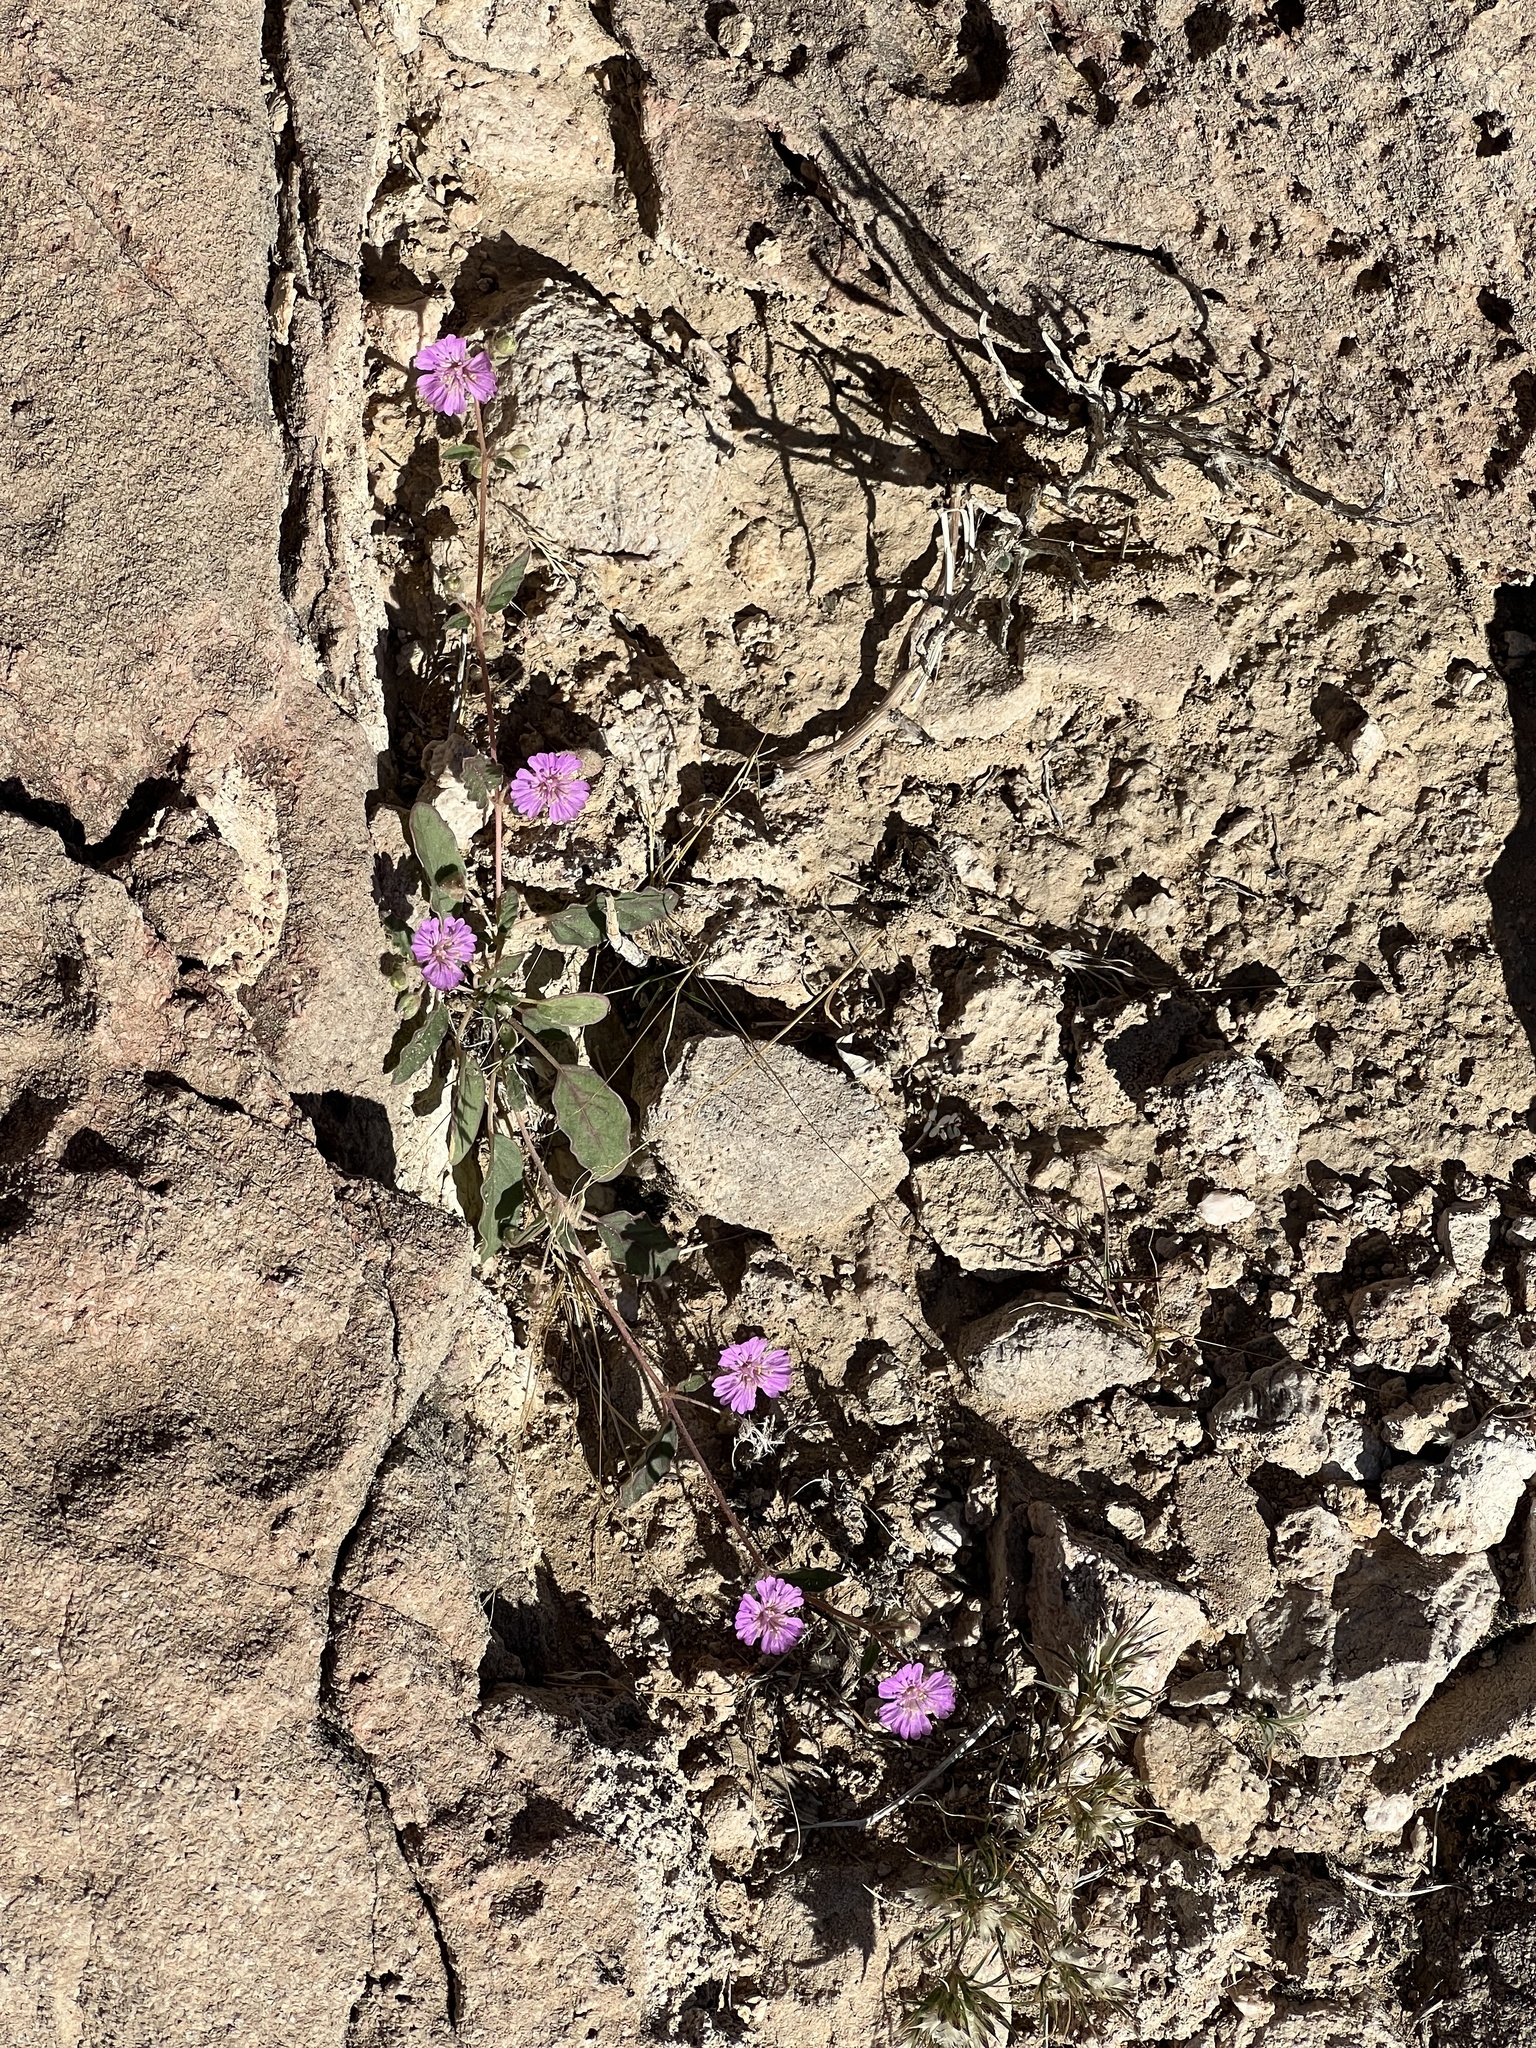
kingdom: Plantae
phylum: Tracheophyta
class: Magnoliopsida
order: Caryophyllales
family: Nyctaginaceae
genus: Allionia
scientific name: Allionia incarnata
